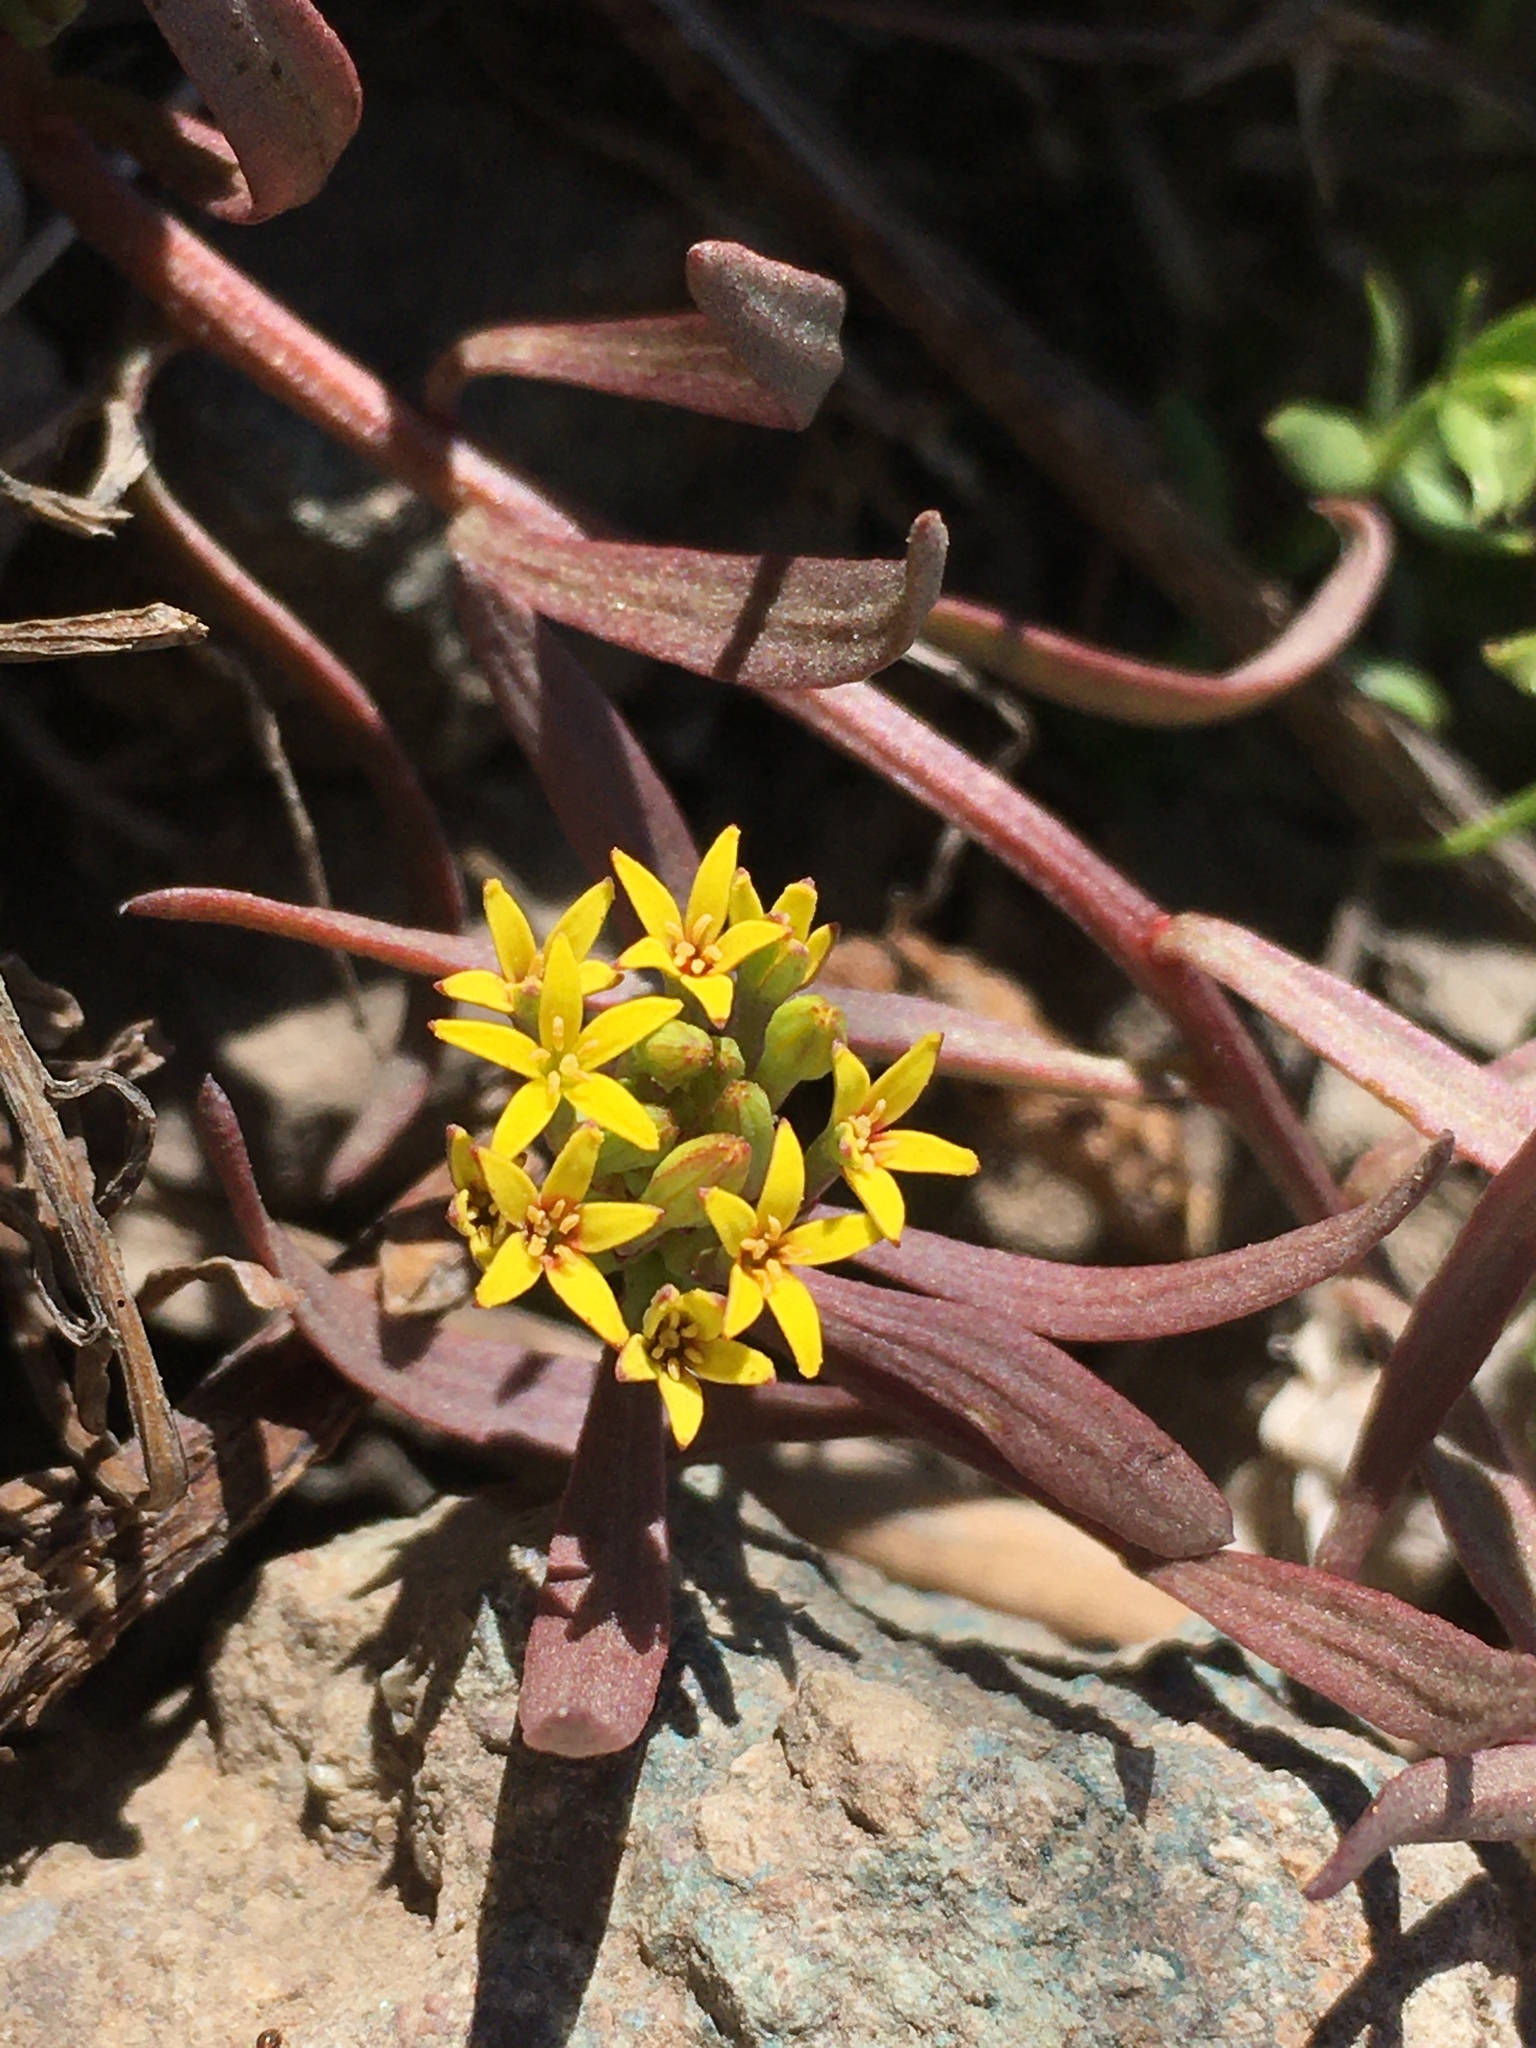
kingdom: Plantae
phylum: Tracheophyta
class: Magnoliopsida
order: Santalales
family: Schoepfiaceae
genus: Quinchamalium
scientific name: Quinchamalium chilense
